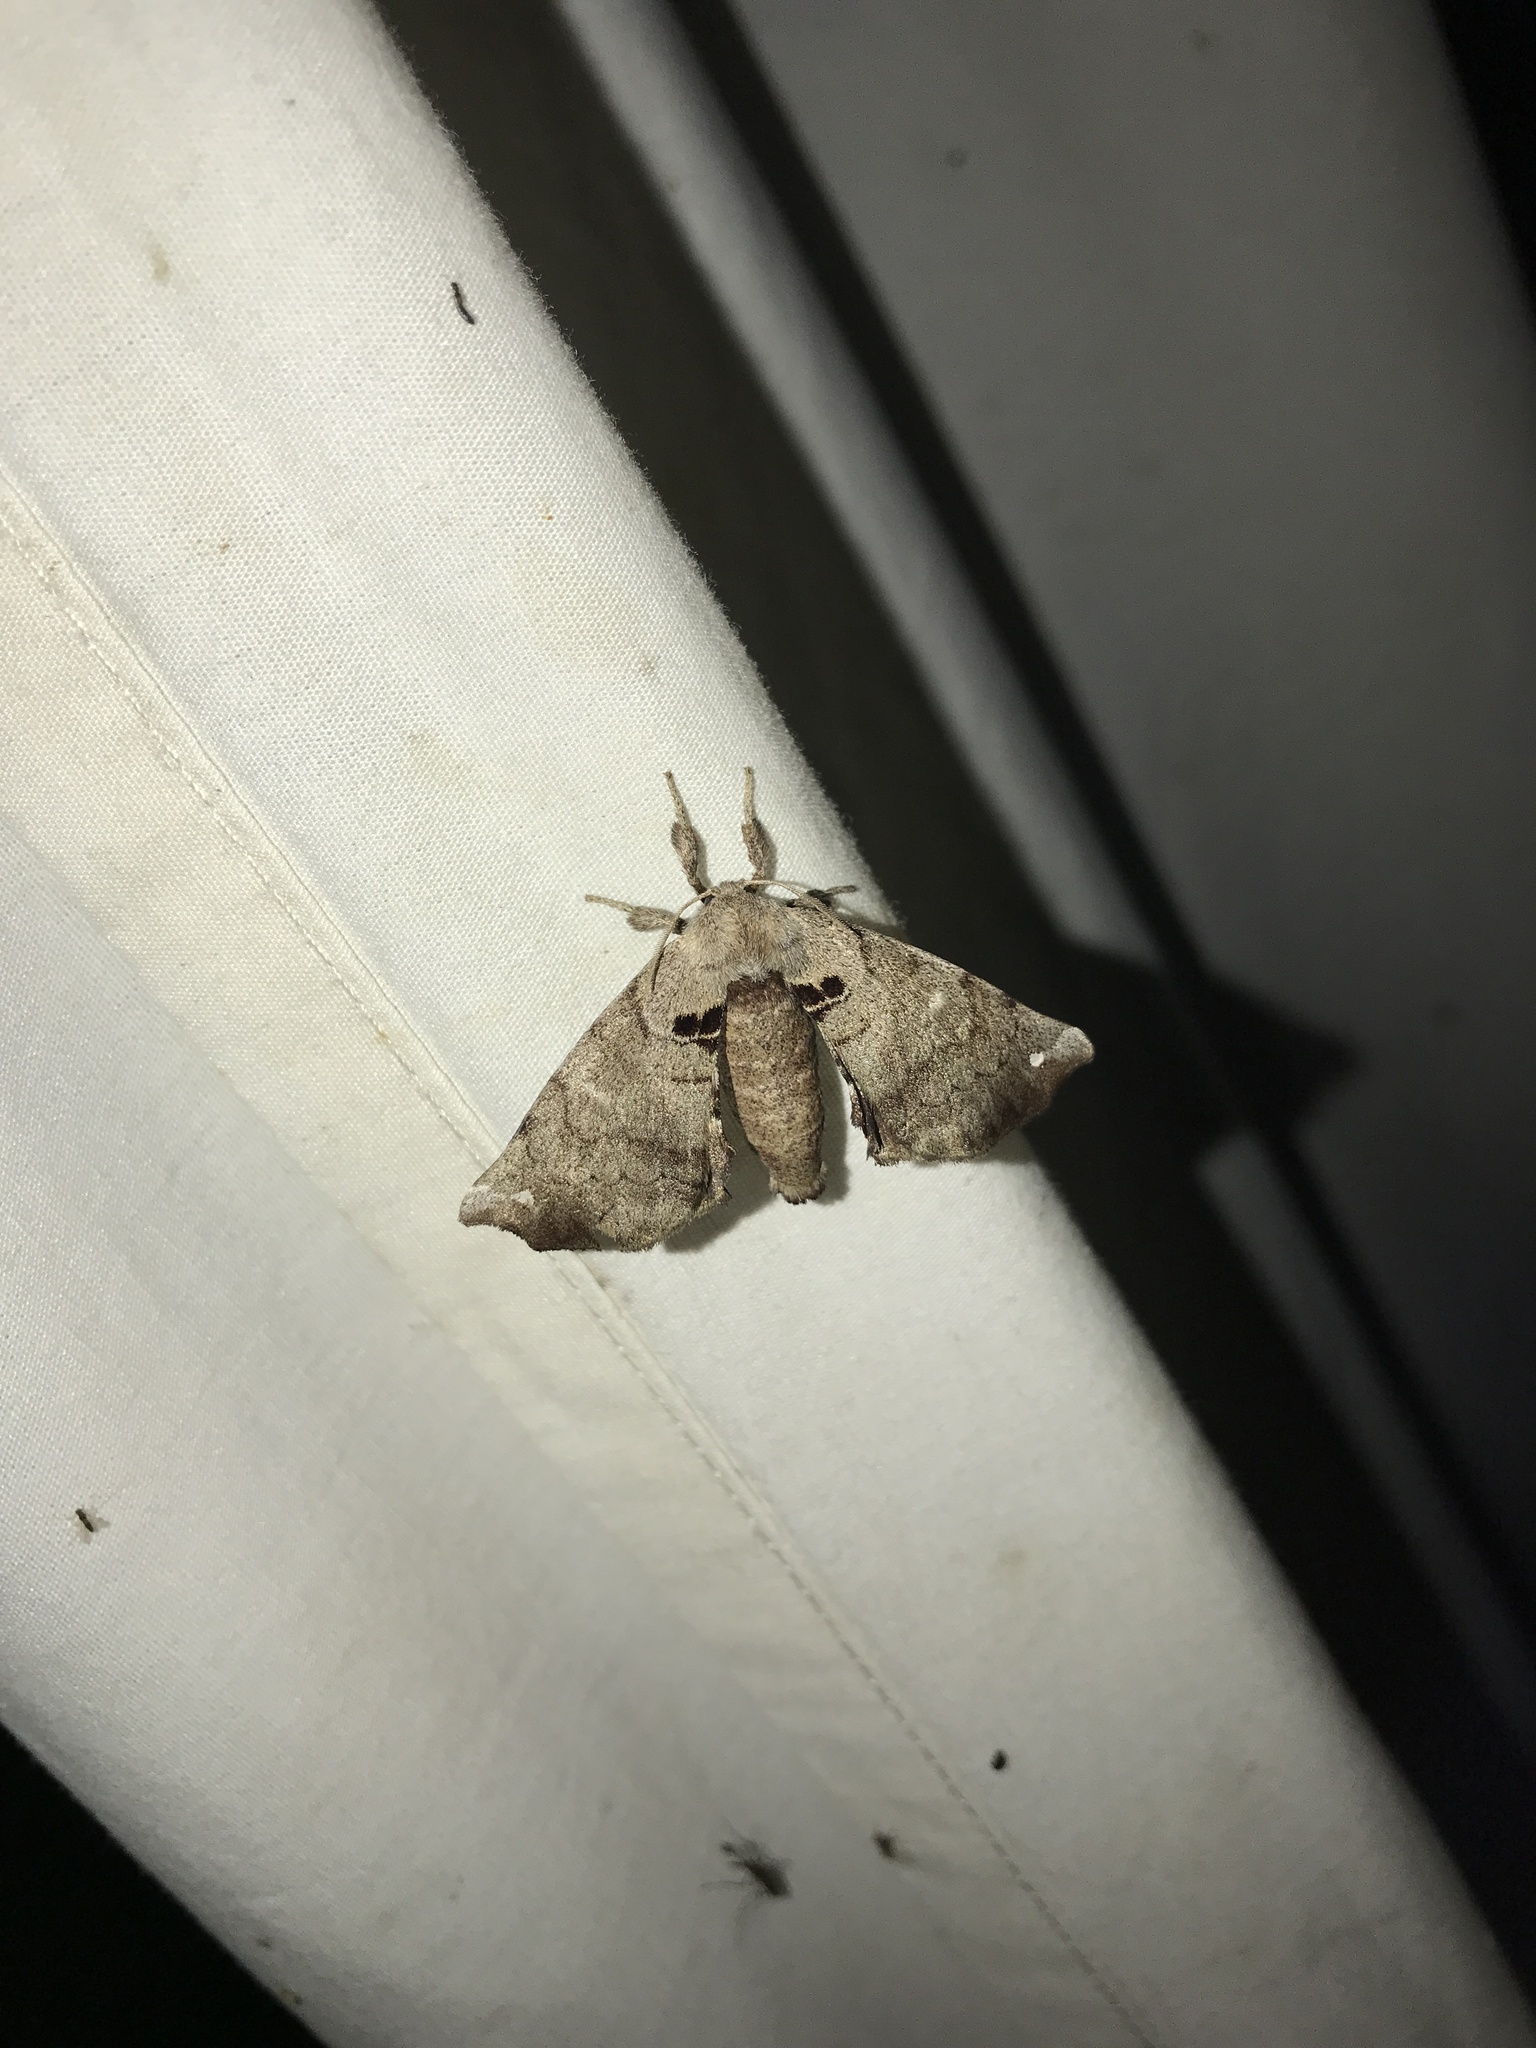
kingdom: Animalia
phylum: Arthropoda
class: Insecta
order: Lepidoptera
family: Apatelodidae
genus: Hygrochroa
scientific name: Hygrochroa Apatelodes torrefacta
